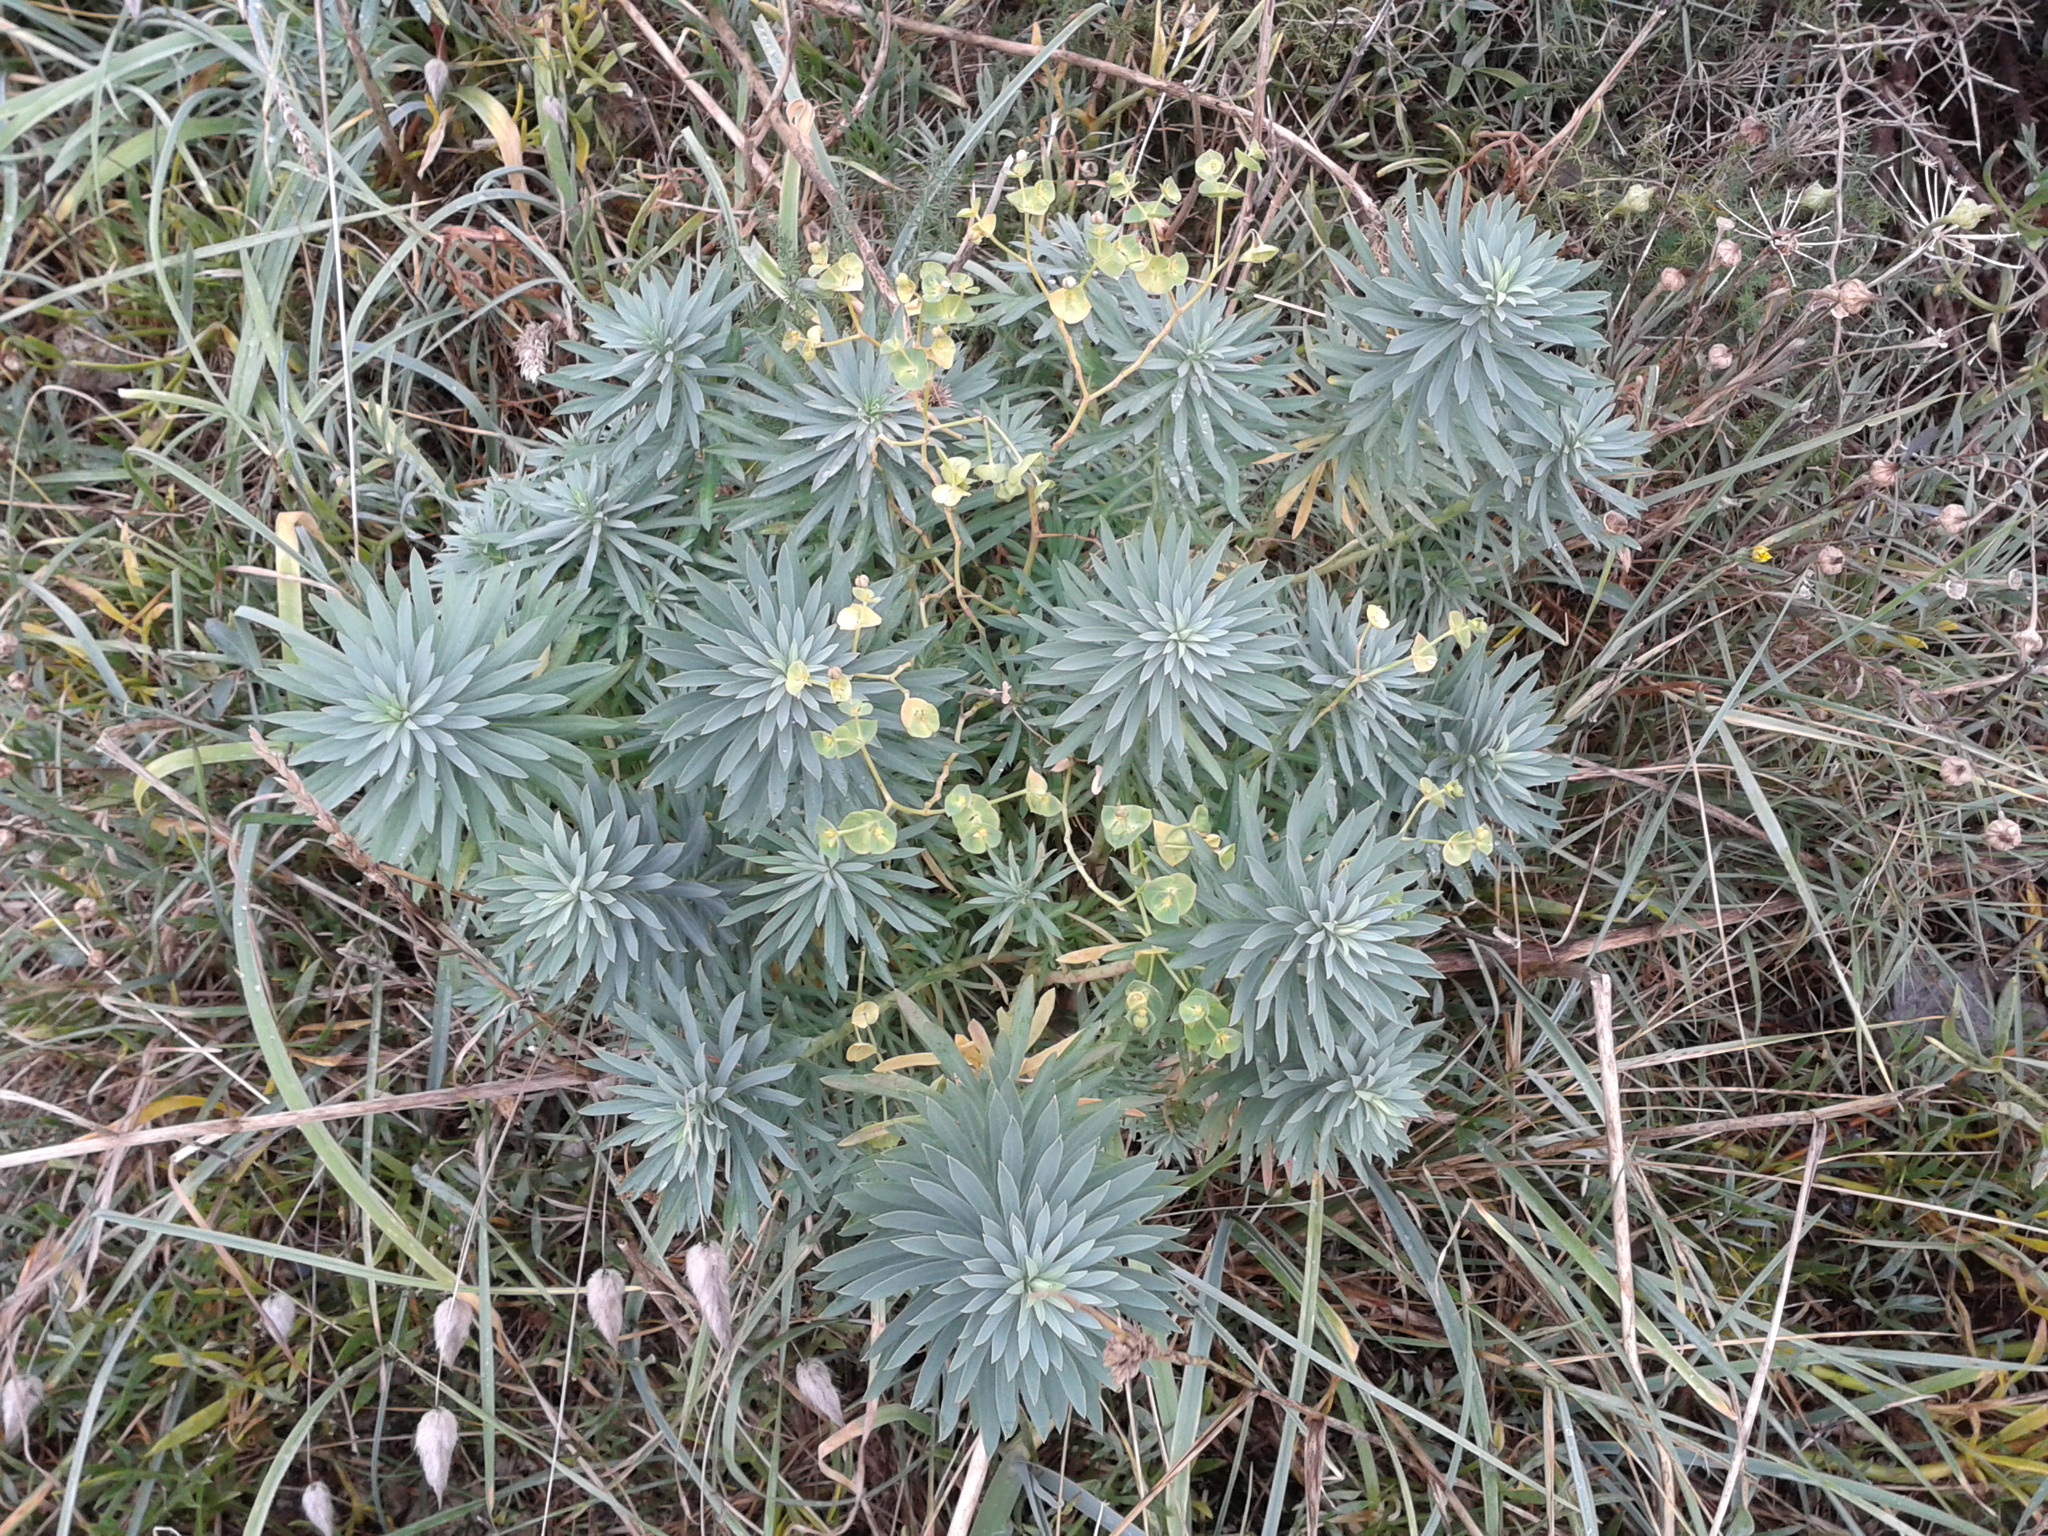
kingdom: Plantae
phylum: Tracheophyta
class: Magnoliopsida
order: Malpighiales
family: Euphorbiaceae
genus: Euphorbia
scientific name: Euphorbia segetalis
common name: Corn spurge
